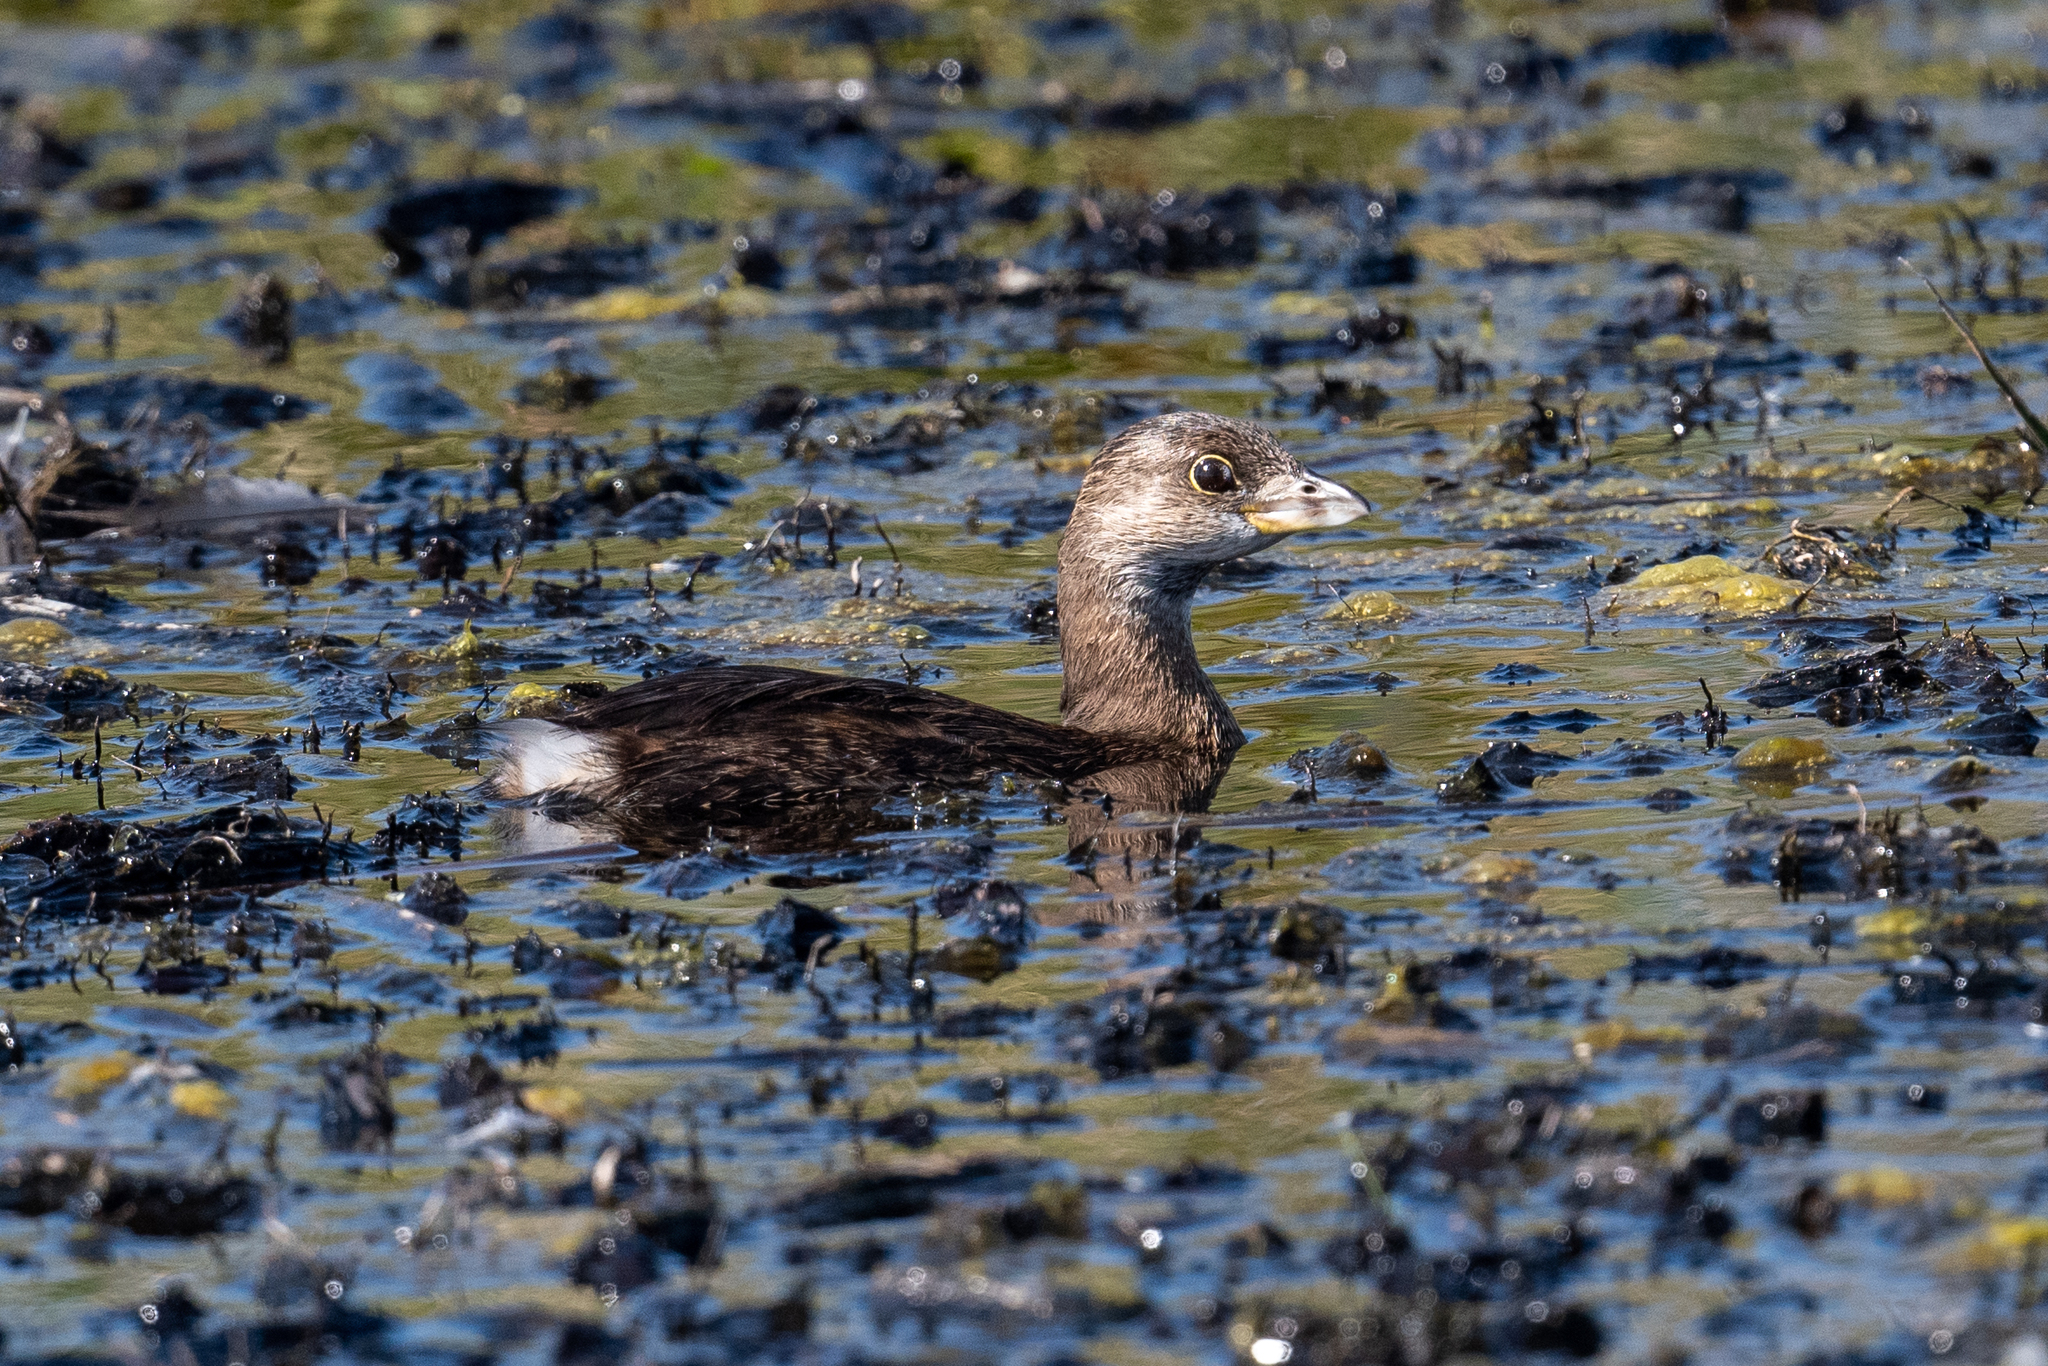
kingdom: Animalia
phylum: Chordata
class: Aves
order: Podicipediformes
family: Podicipedidae
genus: Podilymbus
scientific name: Podilymbus podiceps
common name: Pied-billed grebe
